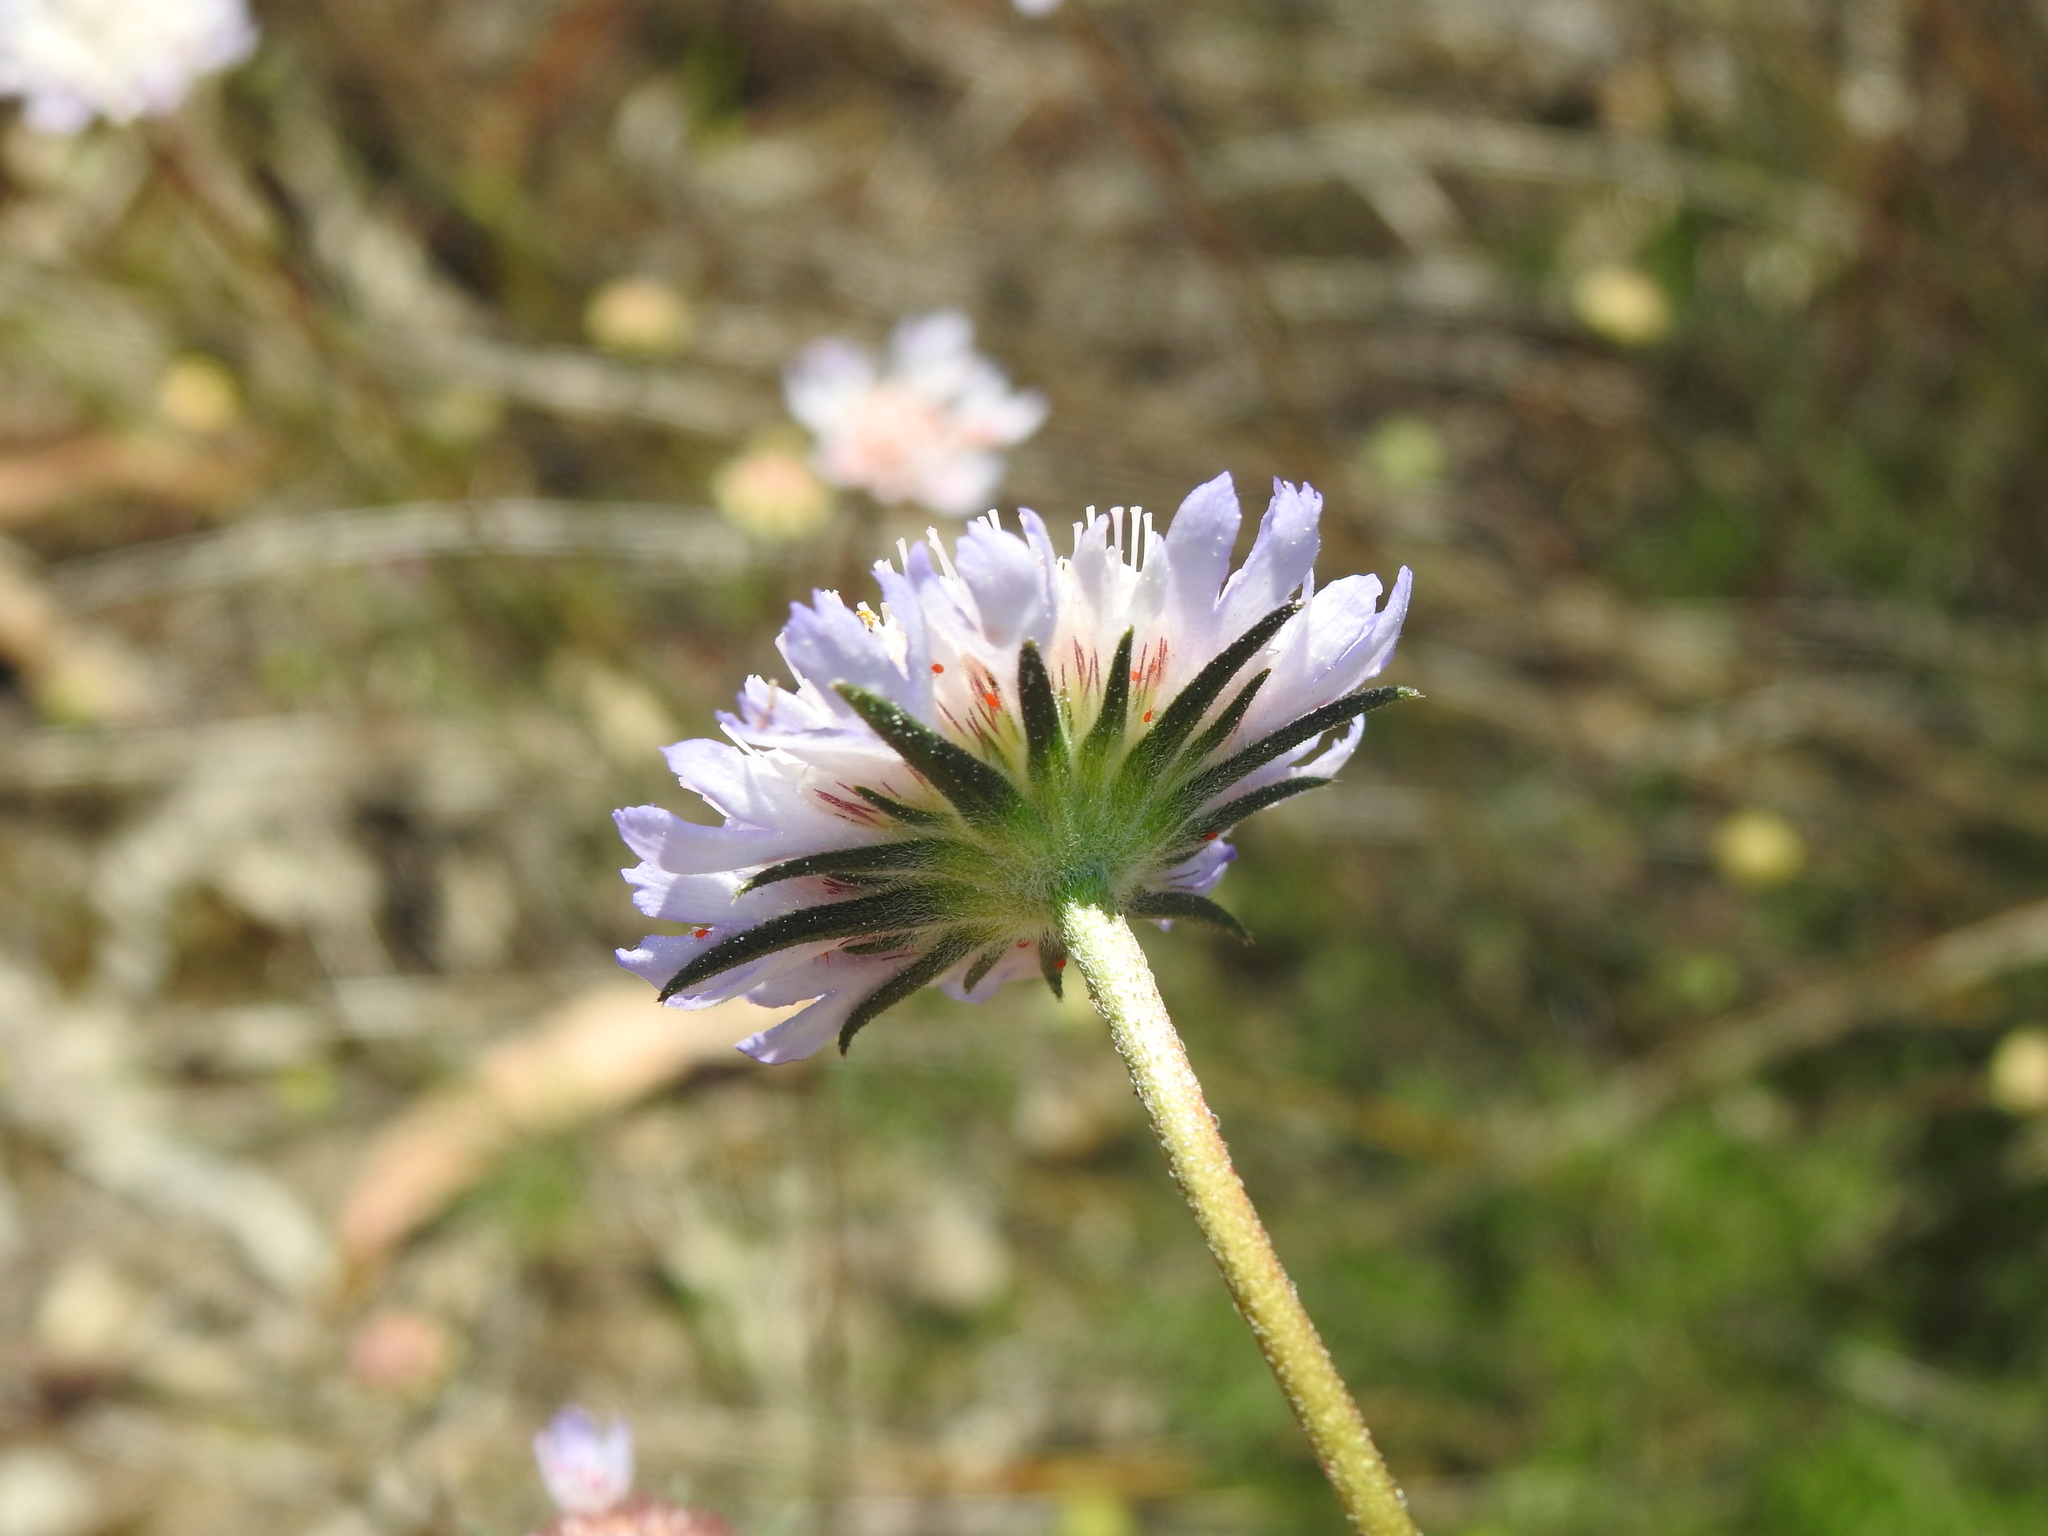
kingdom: Plantae
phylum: Tracheophyta
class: Magnoliopsida
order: Dipsacales
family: Caprifoliaceae
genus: Sixalix
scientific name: Sixalix atropurpurea
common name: Sweet scabious
